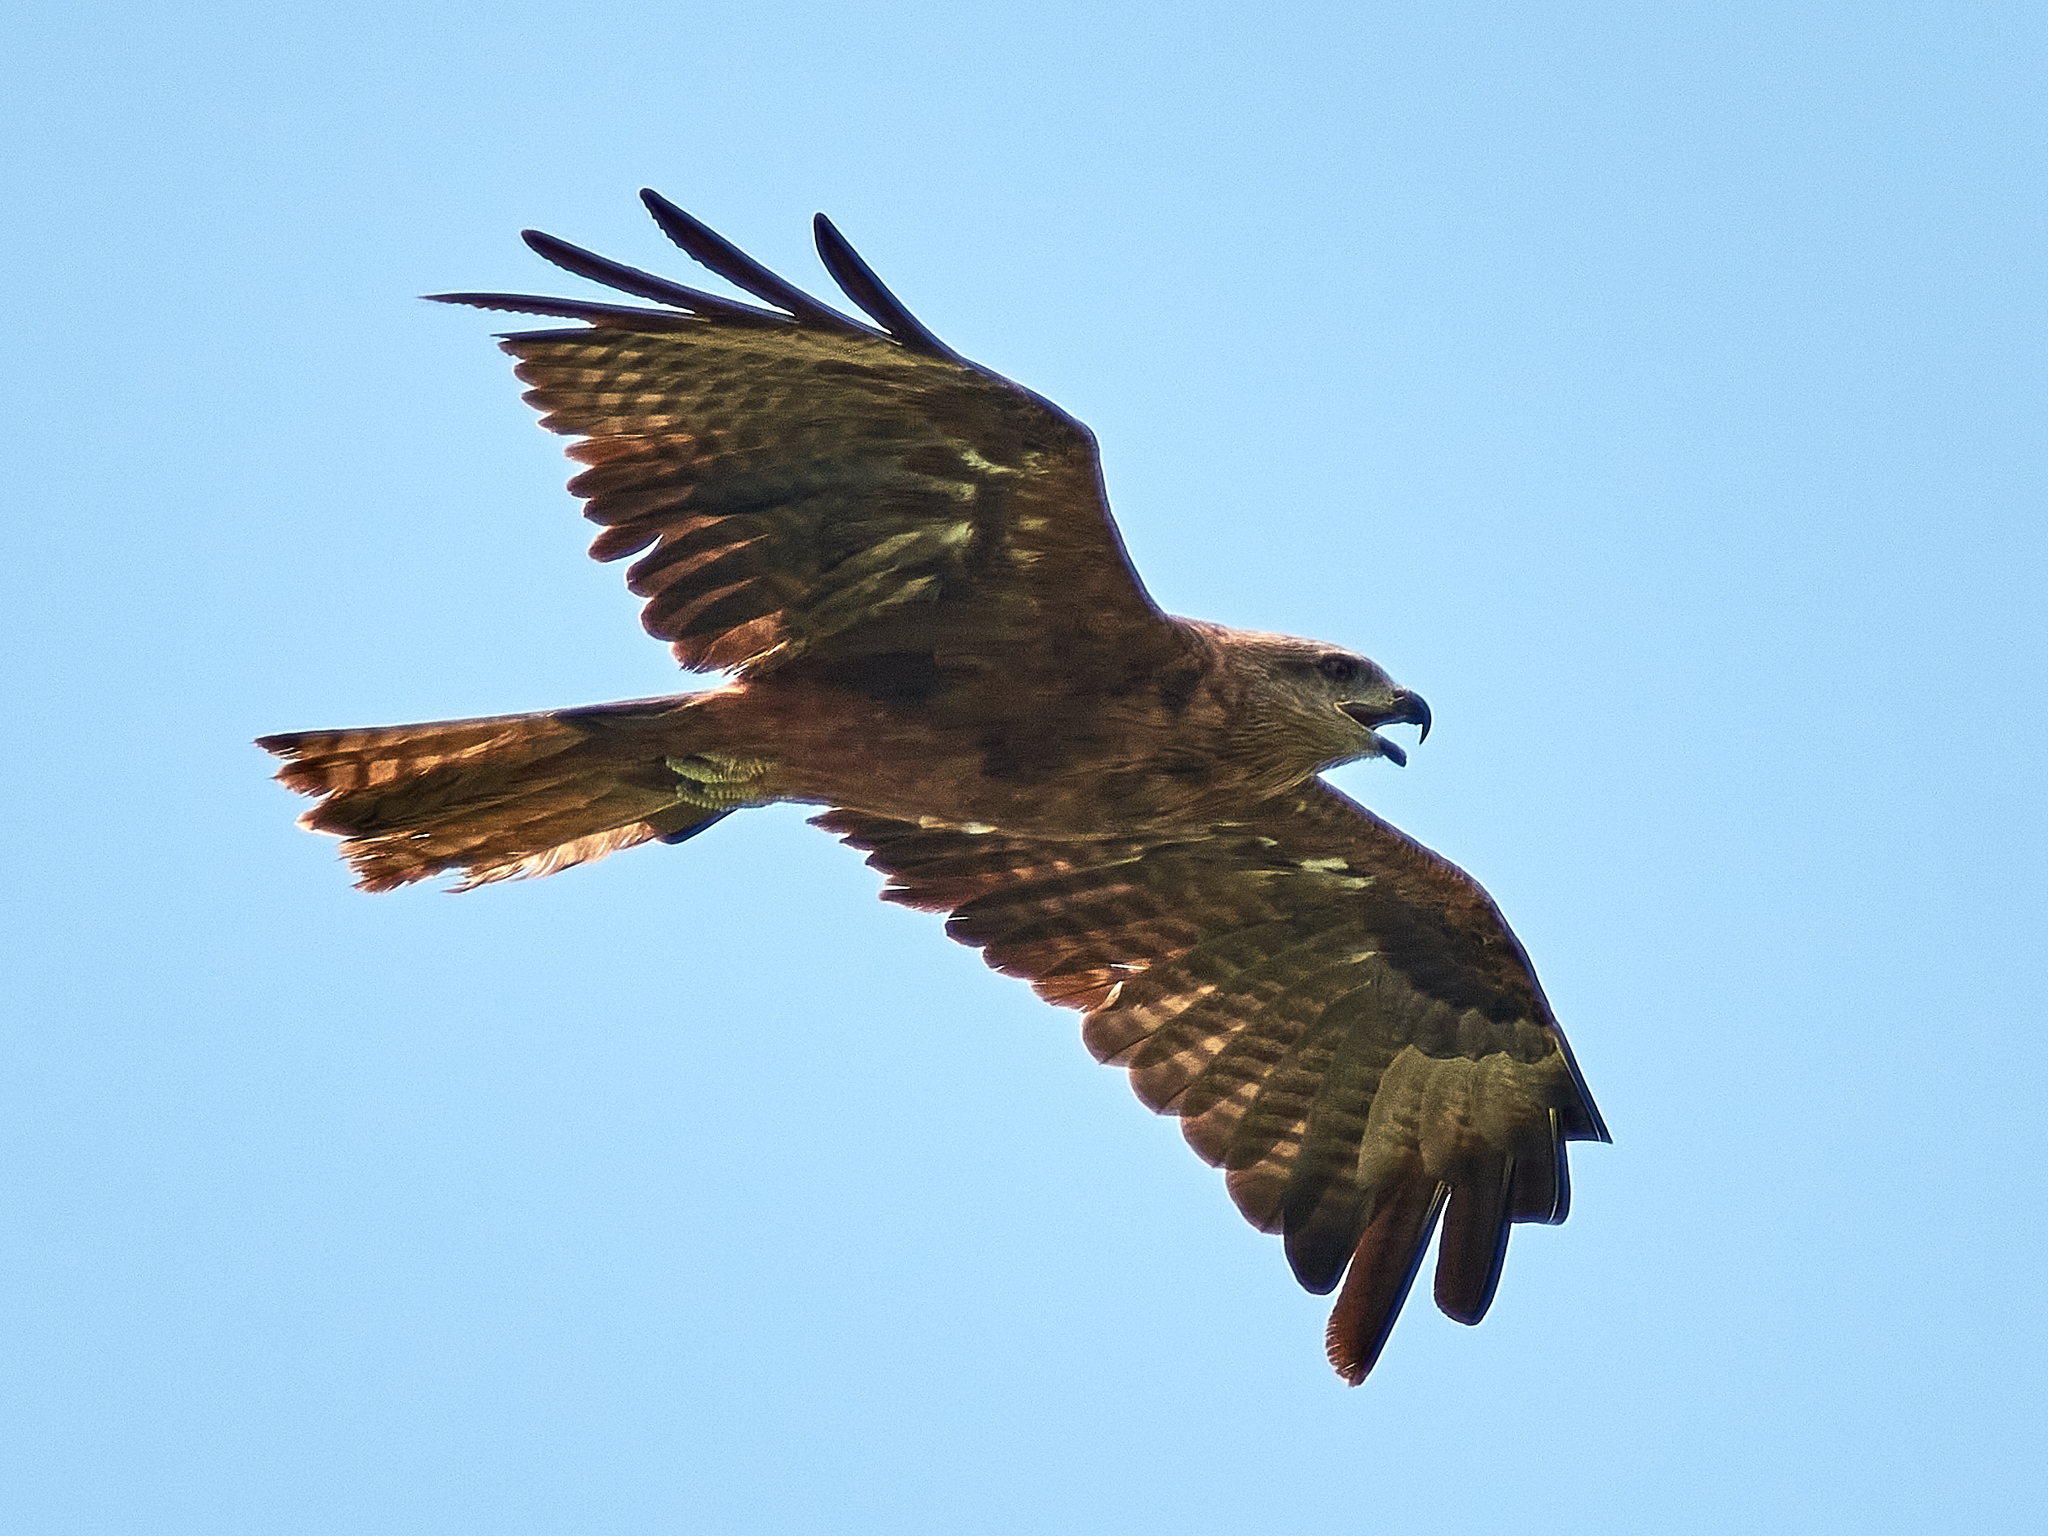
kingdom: Animalia
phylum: Chordata
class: Aves
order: Accipitriformes
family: Accipitridae
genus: Milvus
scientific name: Milvus migrans
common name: Black kite
